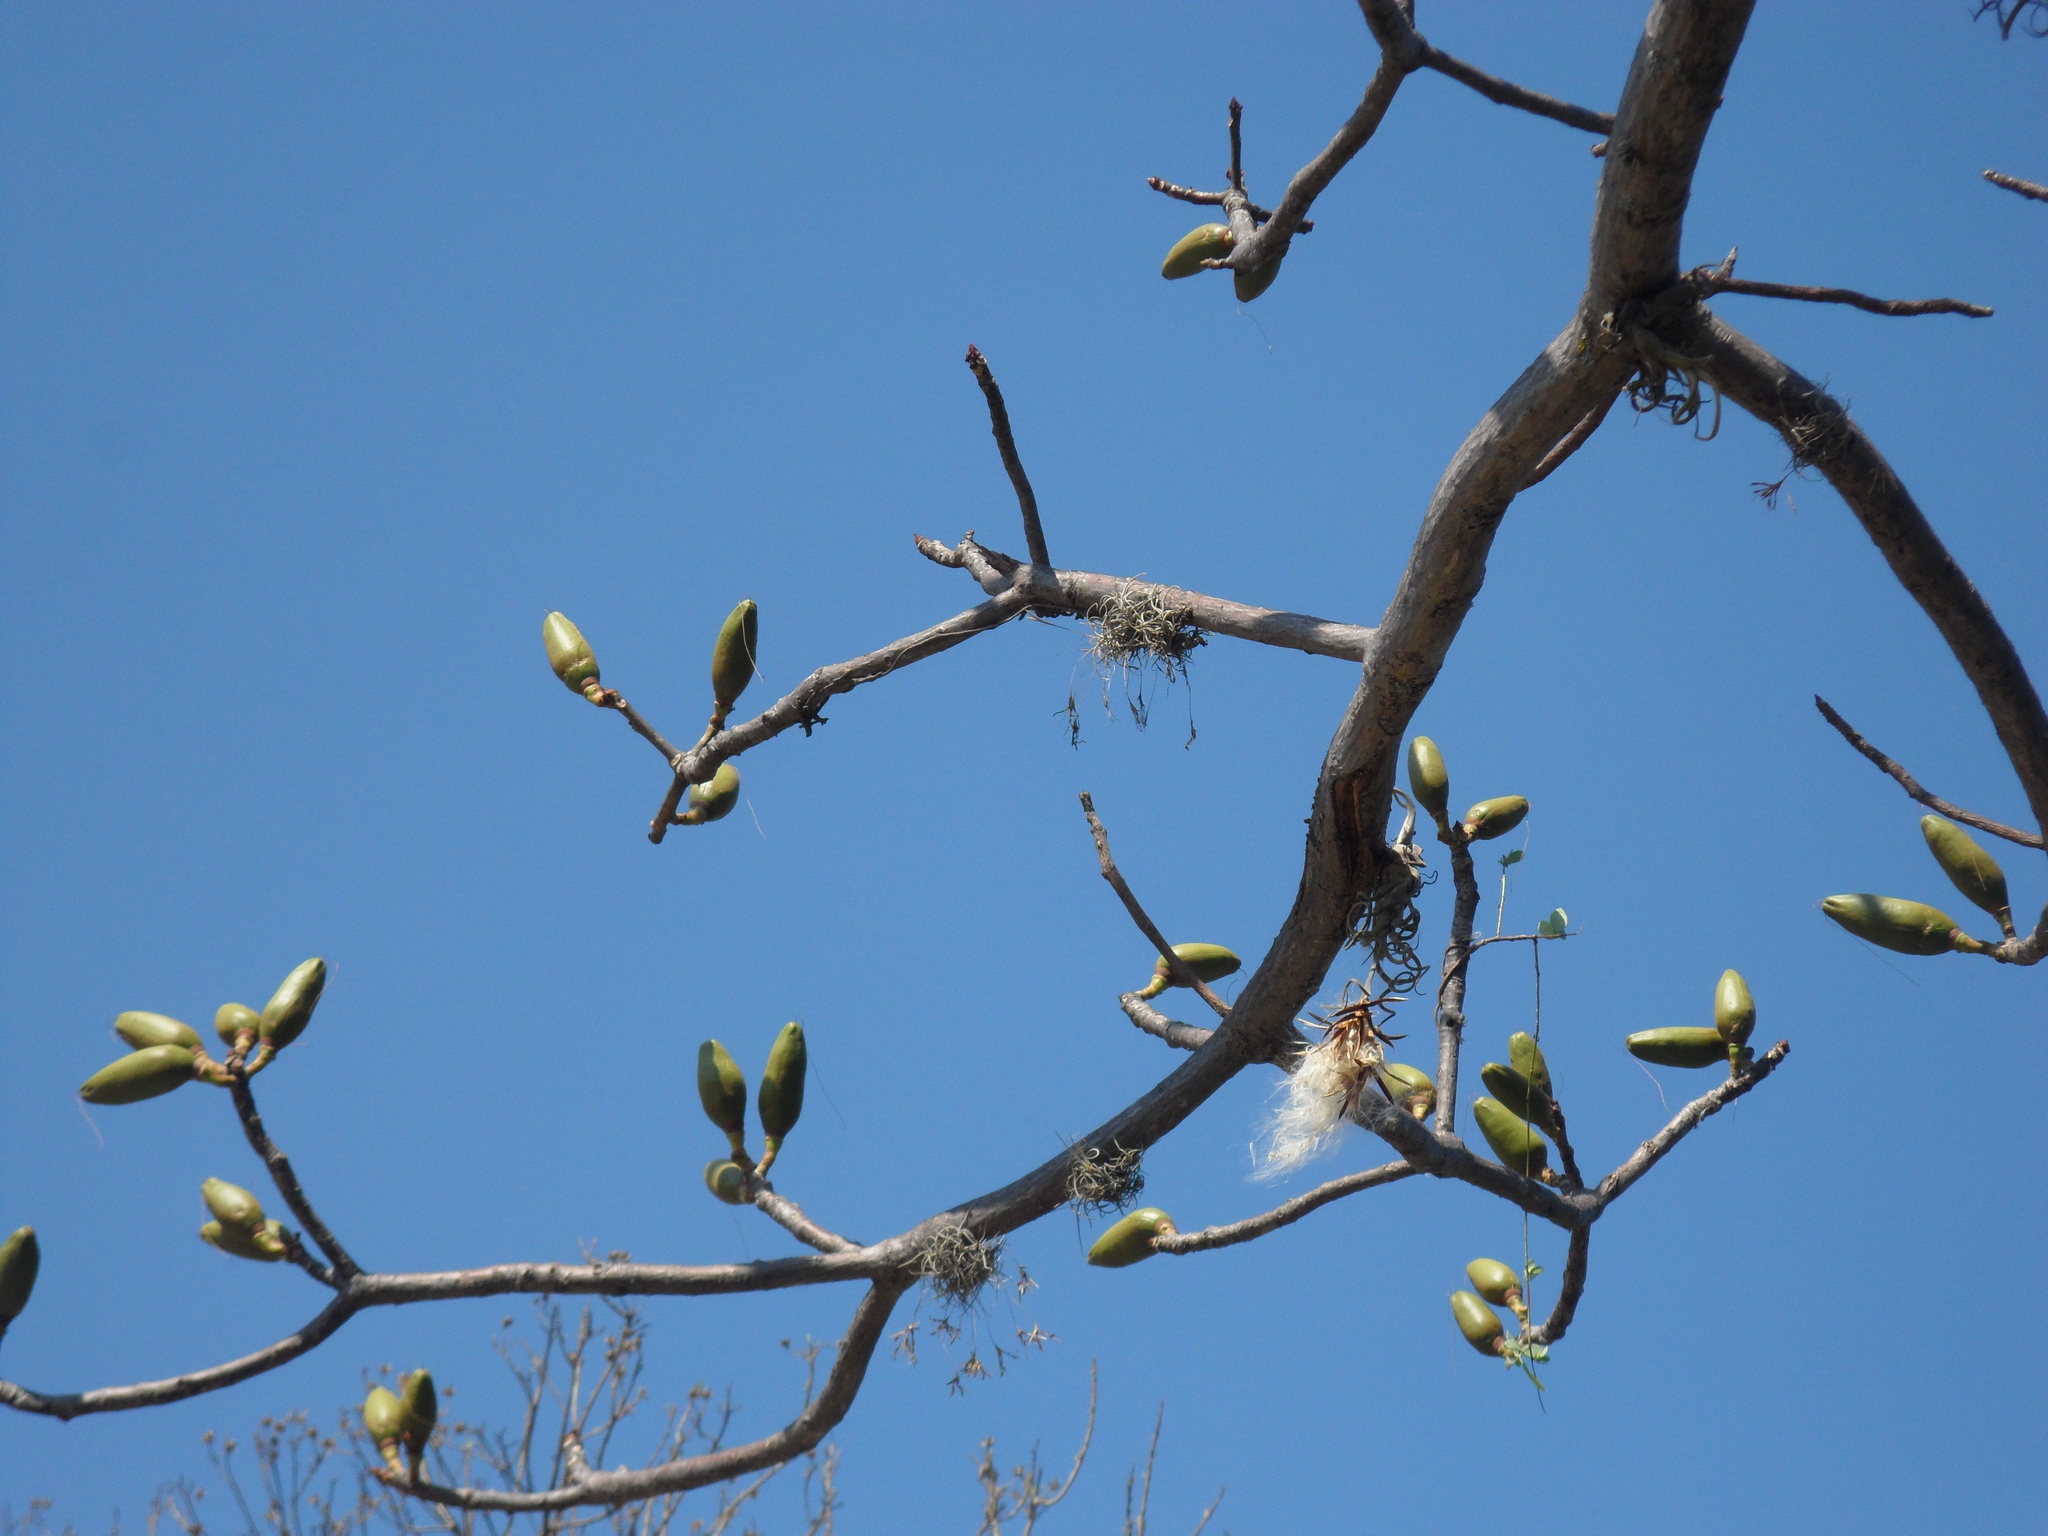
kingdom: Plantae
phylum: Tracheophyta
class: Magnoliopsida
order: Malvales
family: Malvaceae
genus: Pseudobombax
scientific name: Pseudobombax ellipticum
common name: Shaving-brush-tree
